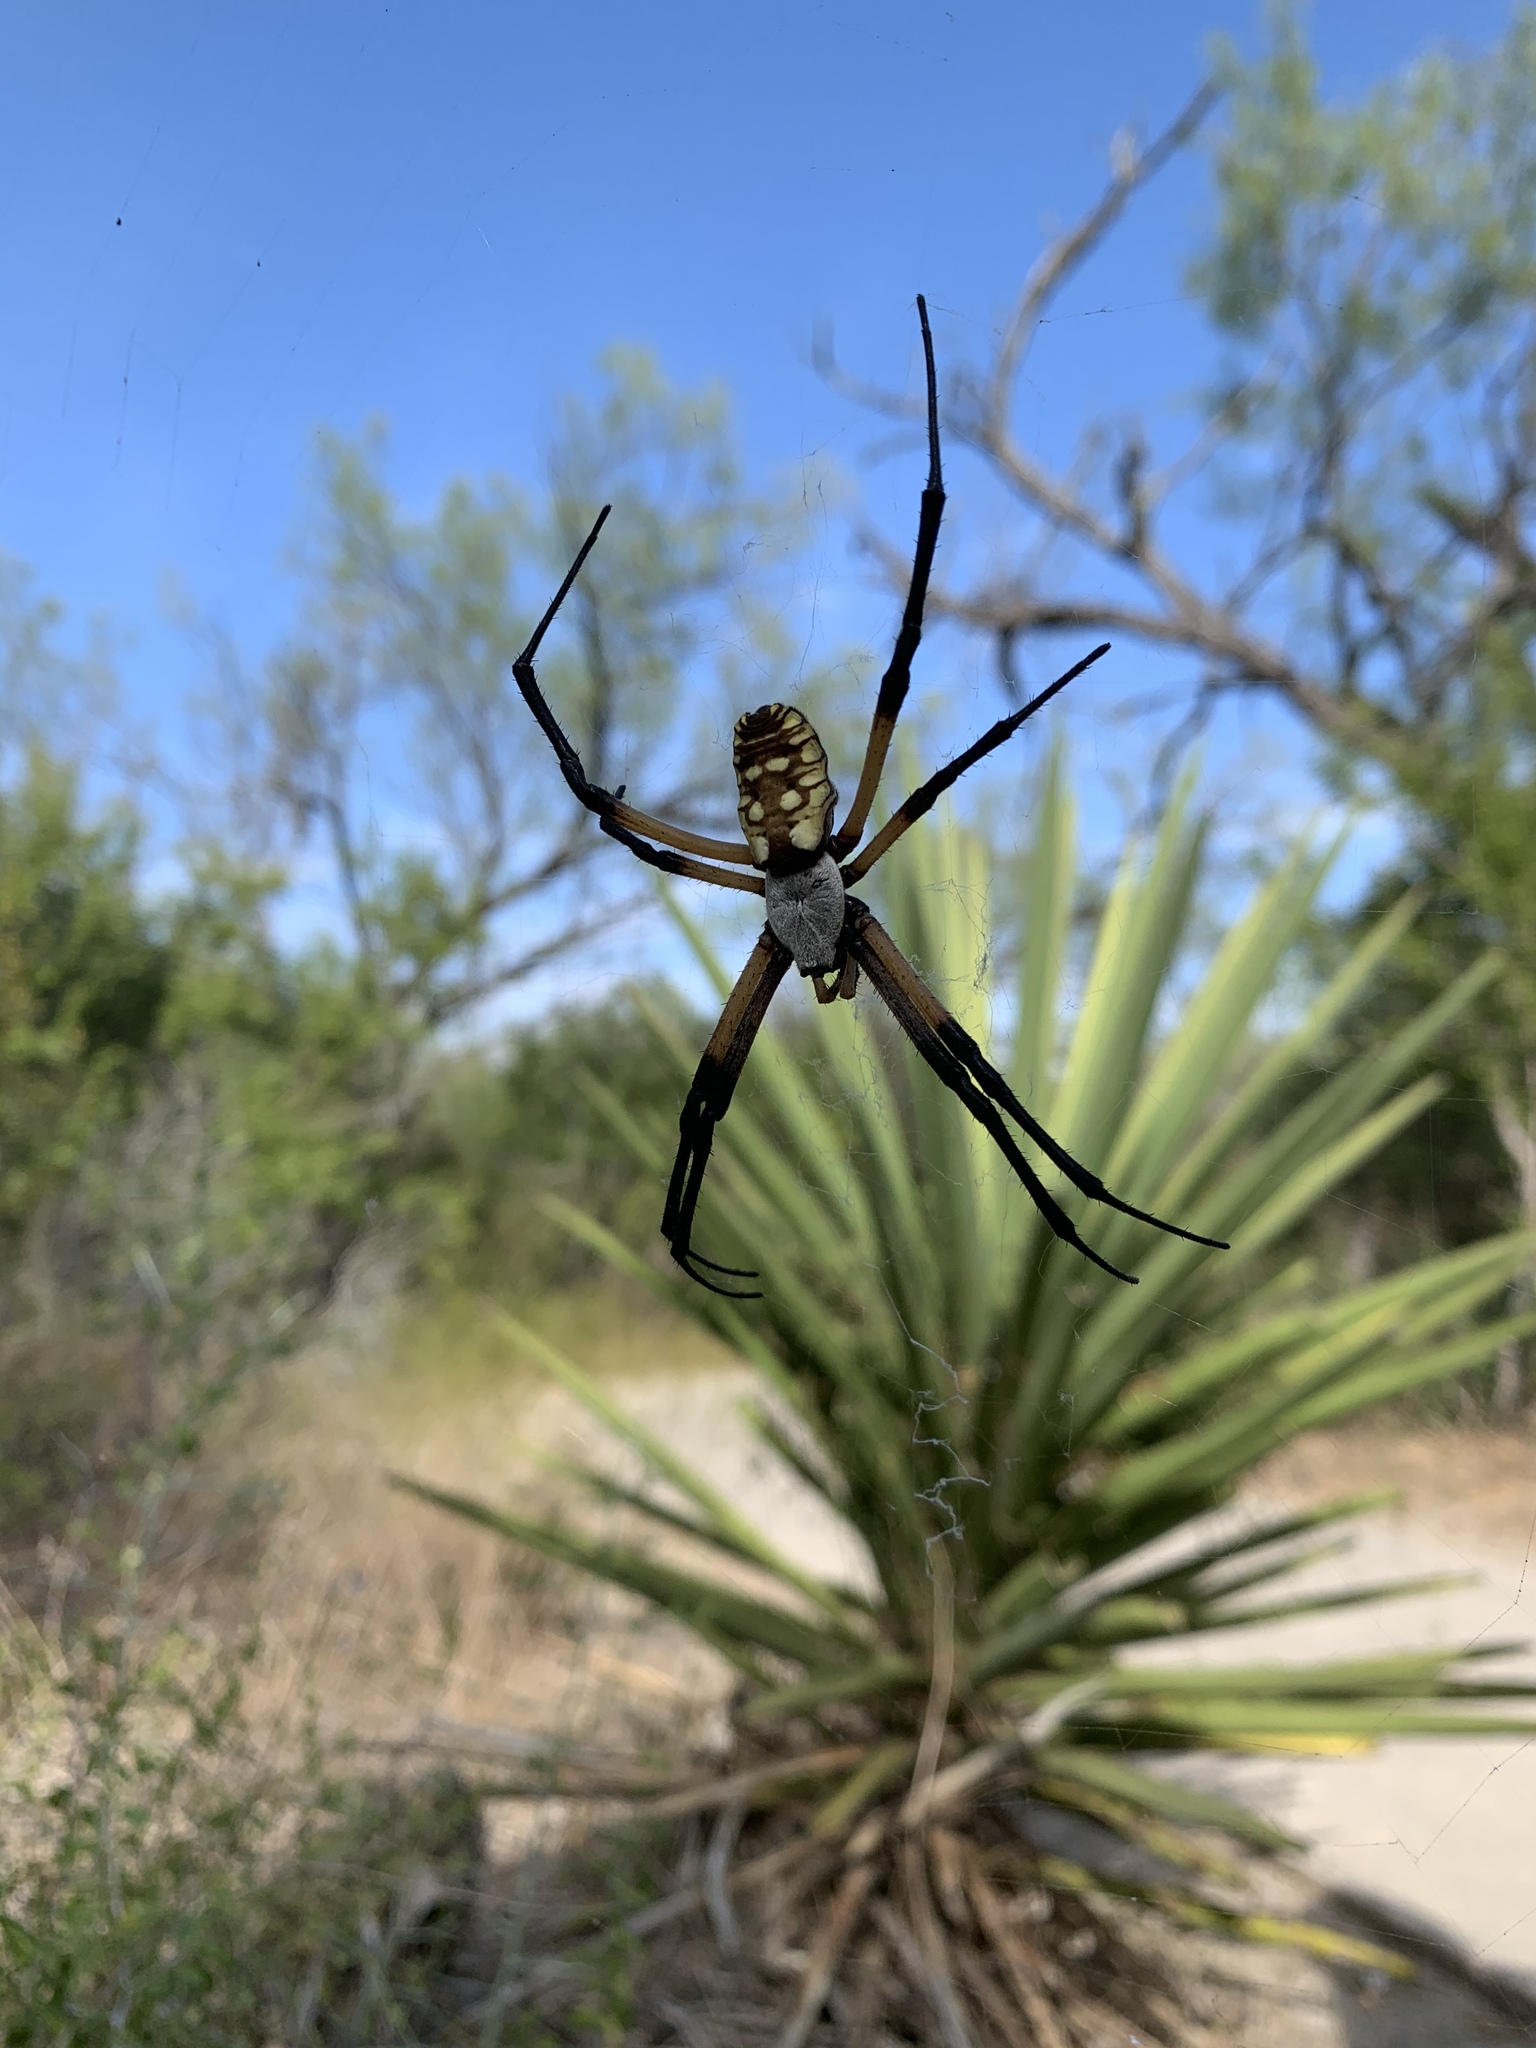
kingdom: Animalia
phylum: Arthropoda
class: Arachnida
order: Araneae
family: Araneidae
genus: Argiope
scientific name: Argiope aurantia
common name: Orb weavers
